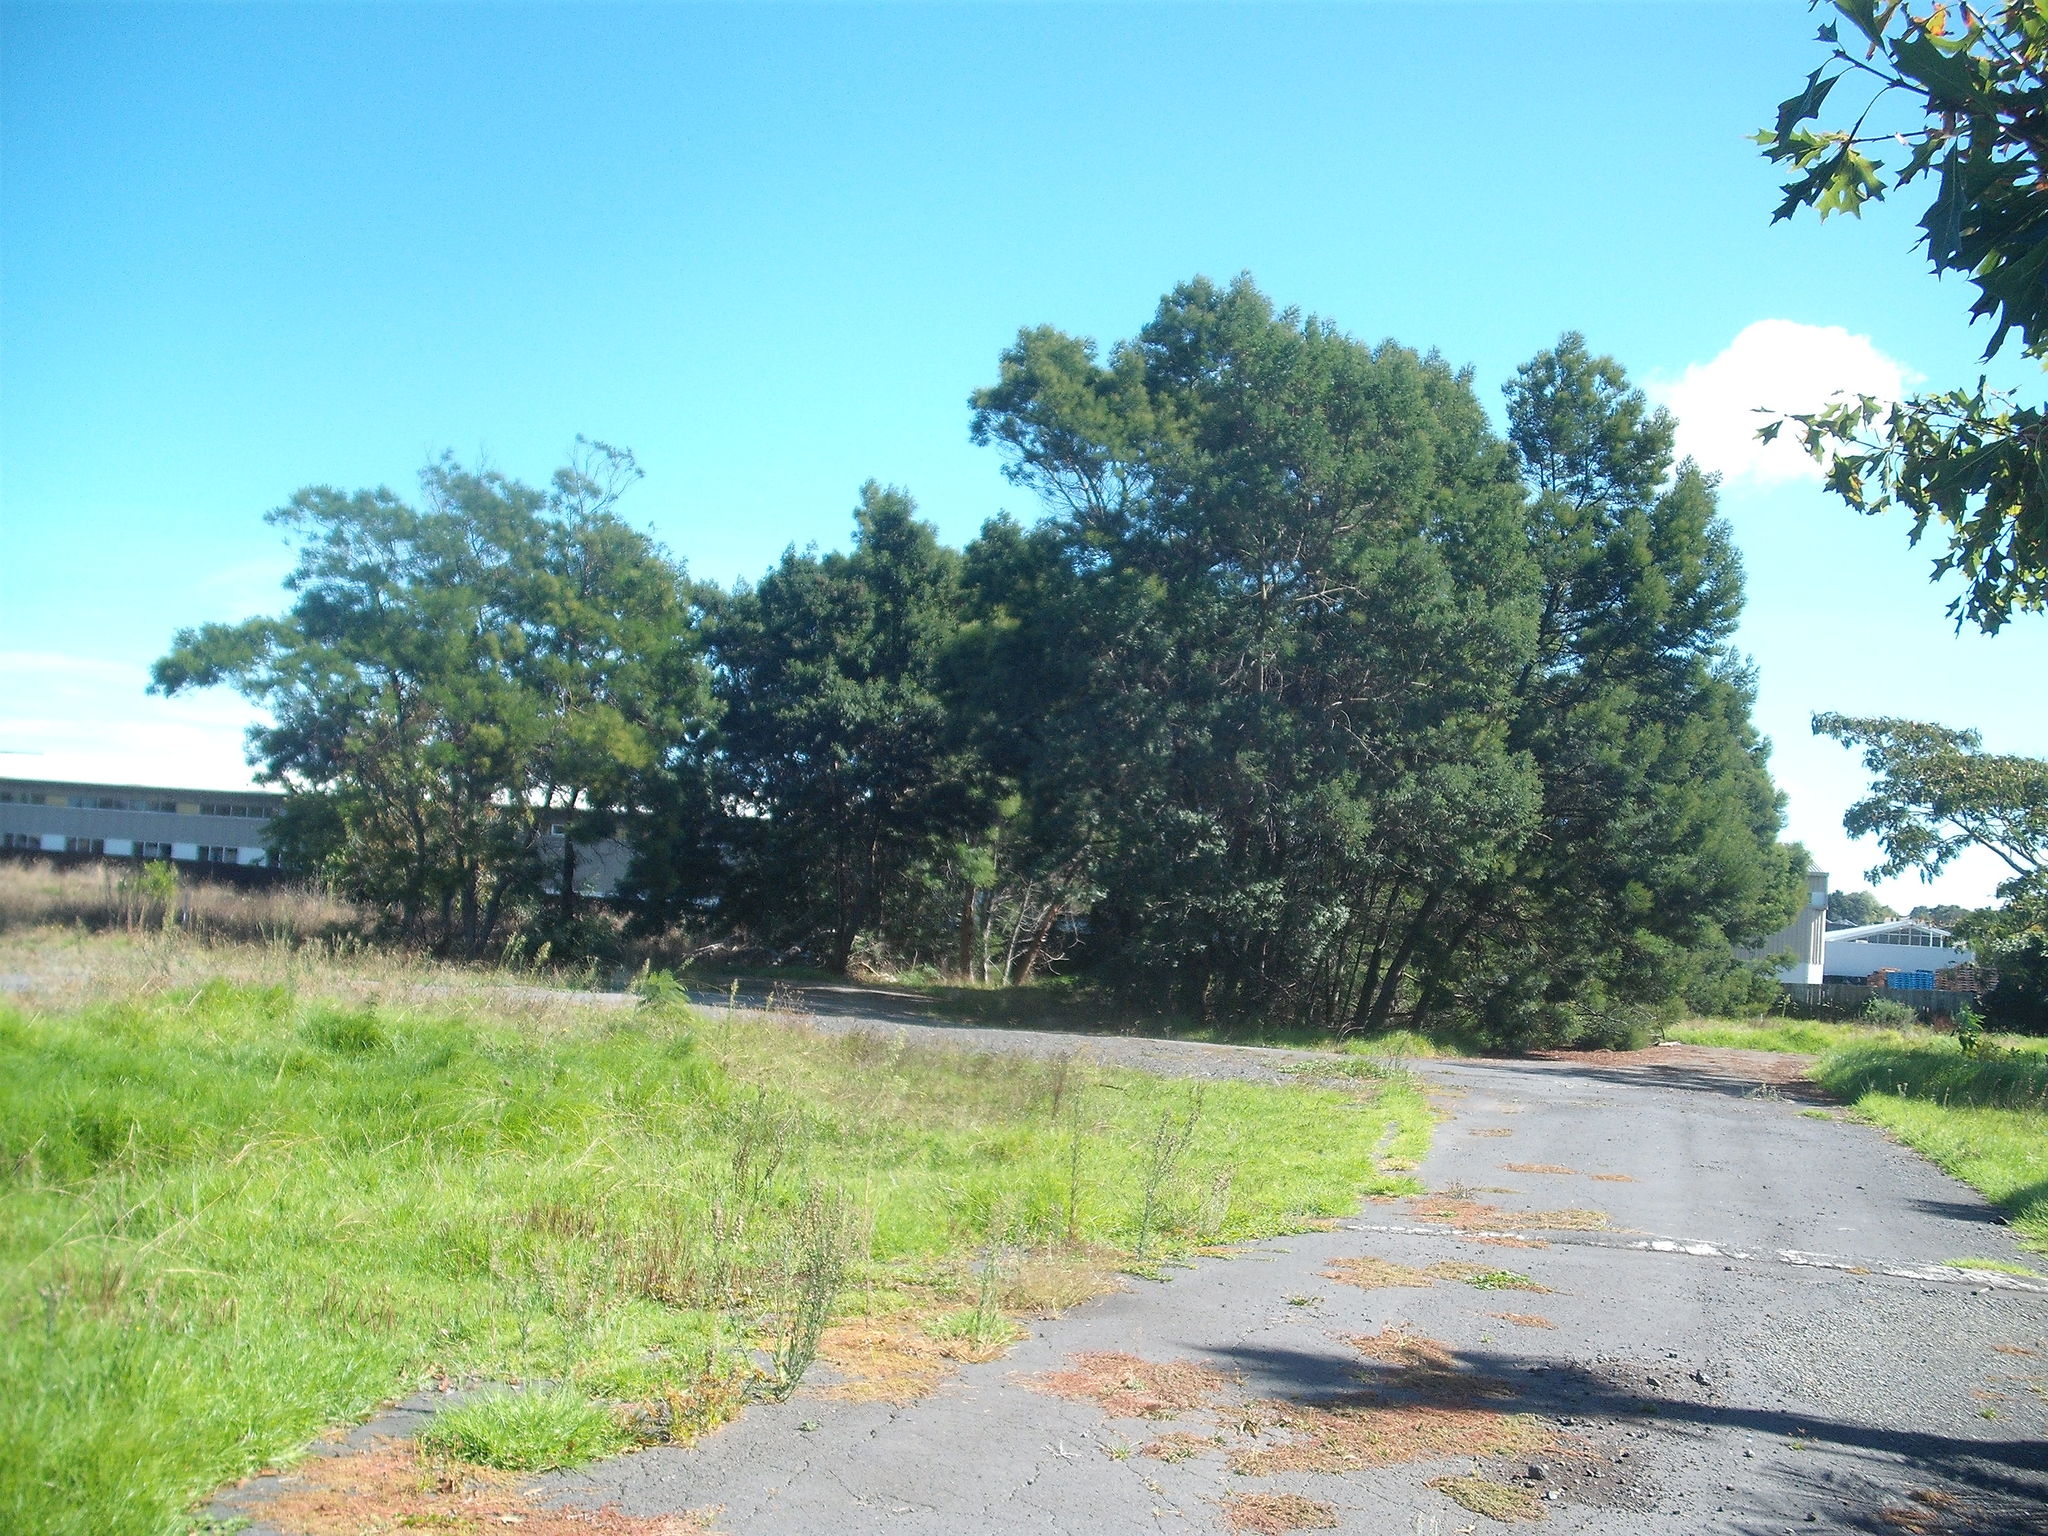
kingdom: Plantae
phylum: Tracheophyta
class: Magnoliopsida
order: Fabales
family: Fabaceae
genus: Acacia
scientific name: Acacia decurrens
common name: Green wattle
